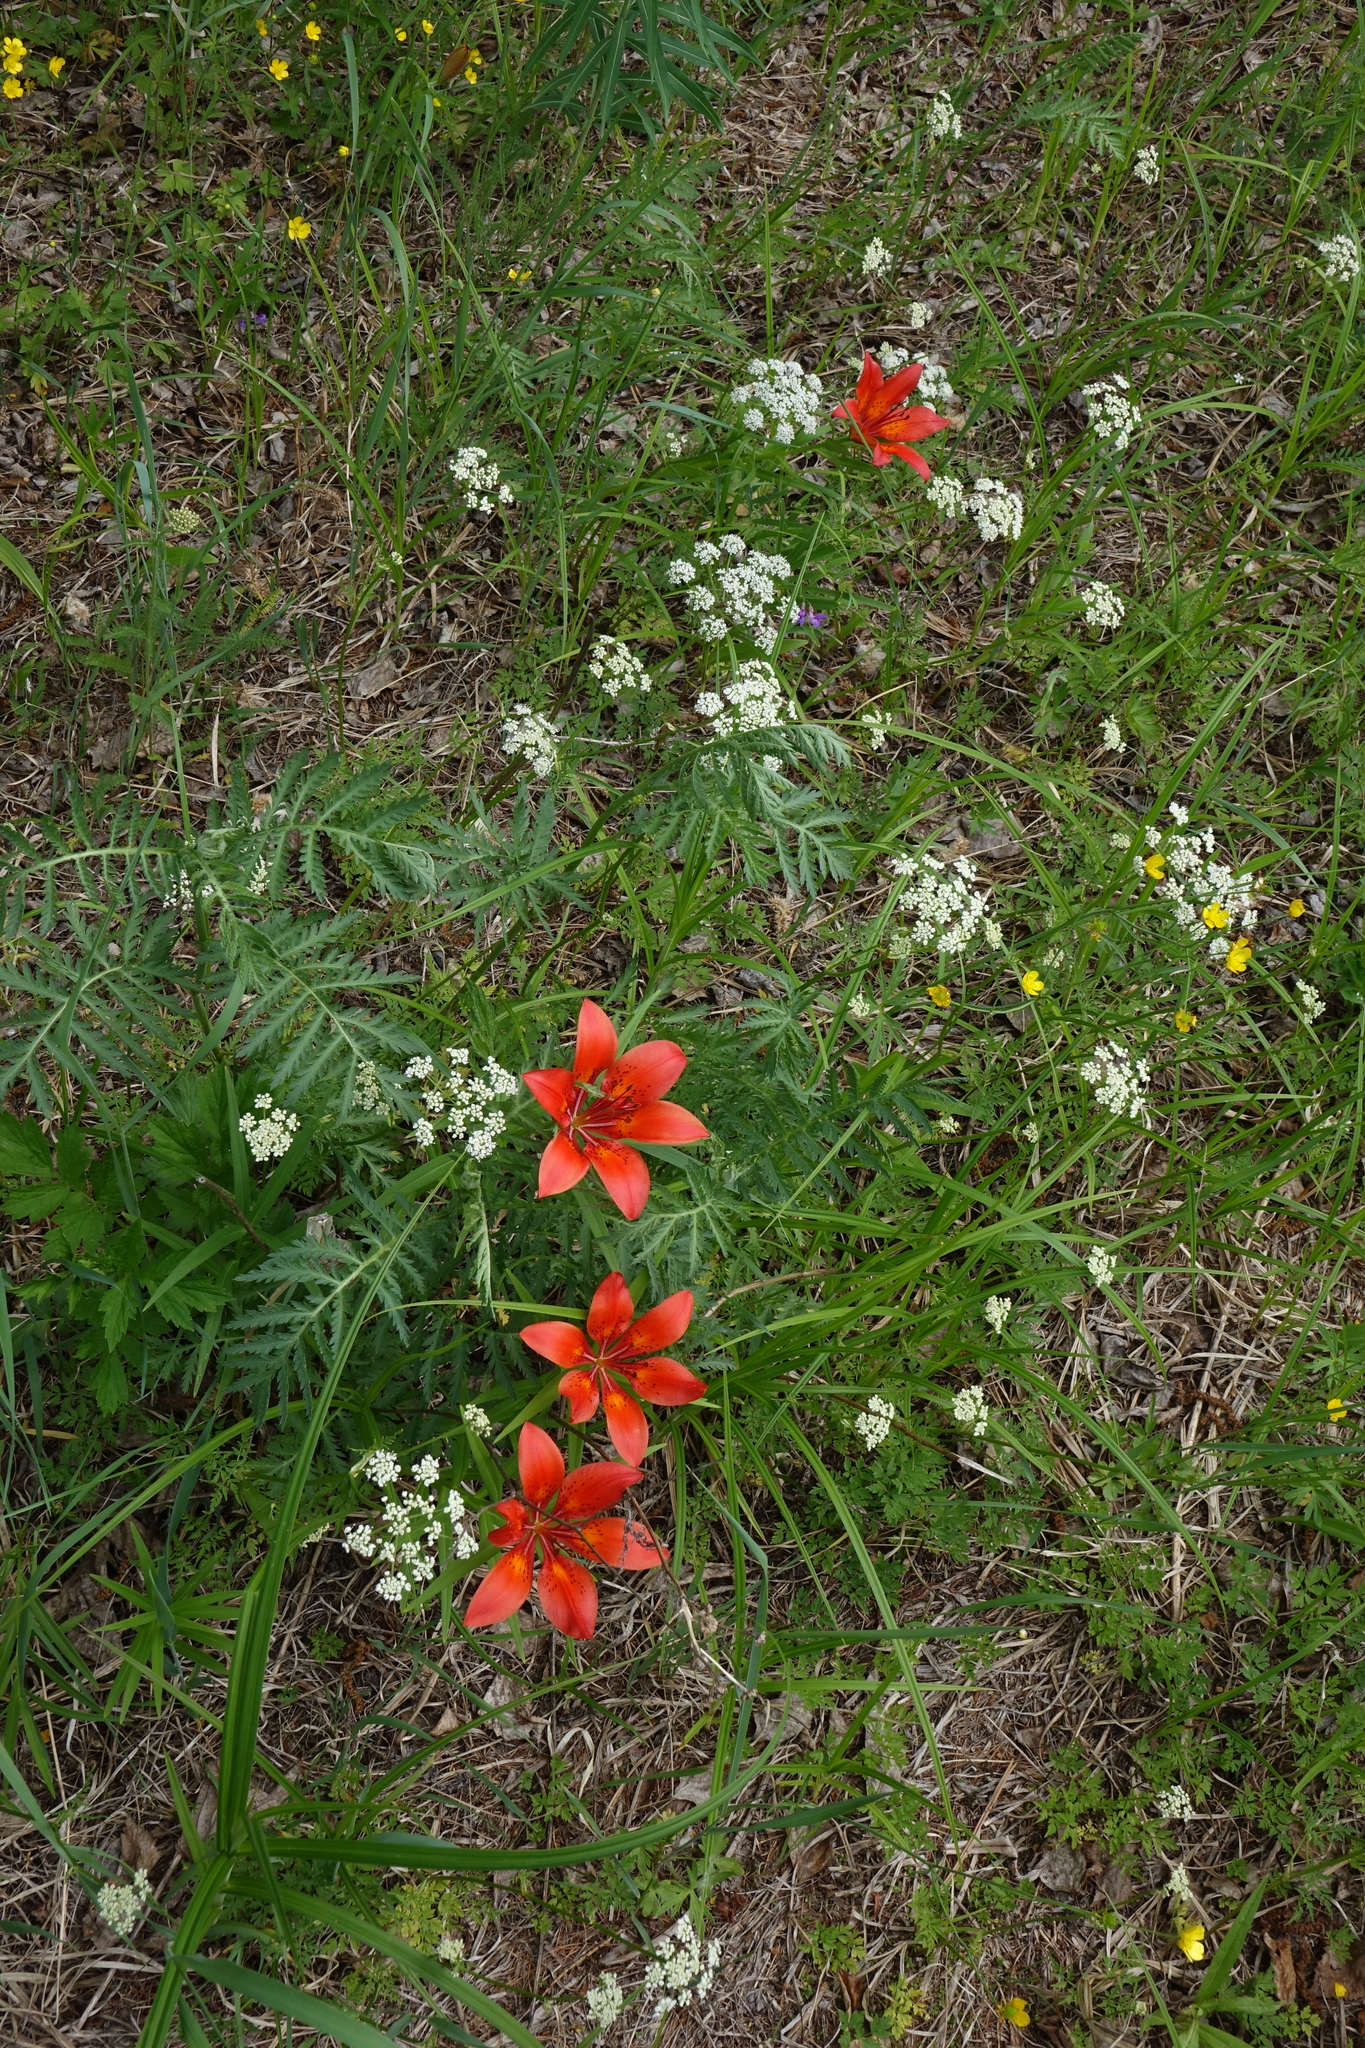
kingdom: Plantae
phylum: Tracheophyta
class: Magnoliopsida
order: Apiales
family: Apiaceae
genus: Aegopodium
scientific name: Aegopodium alpestre
